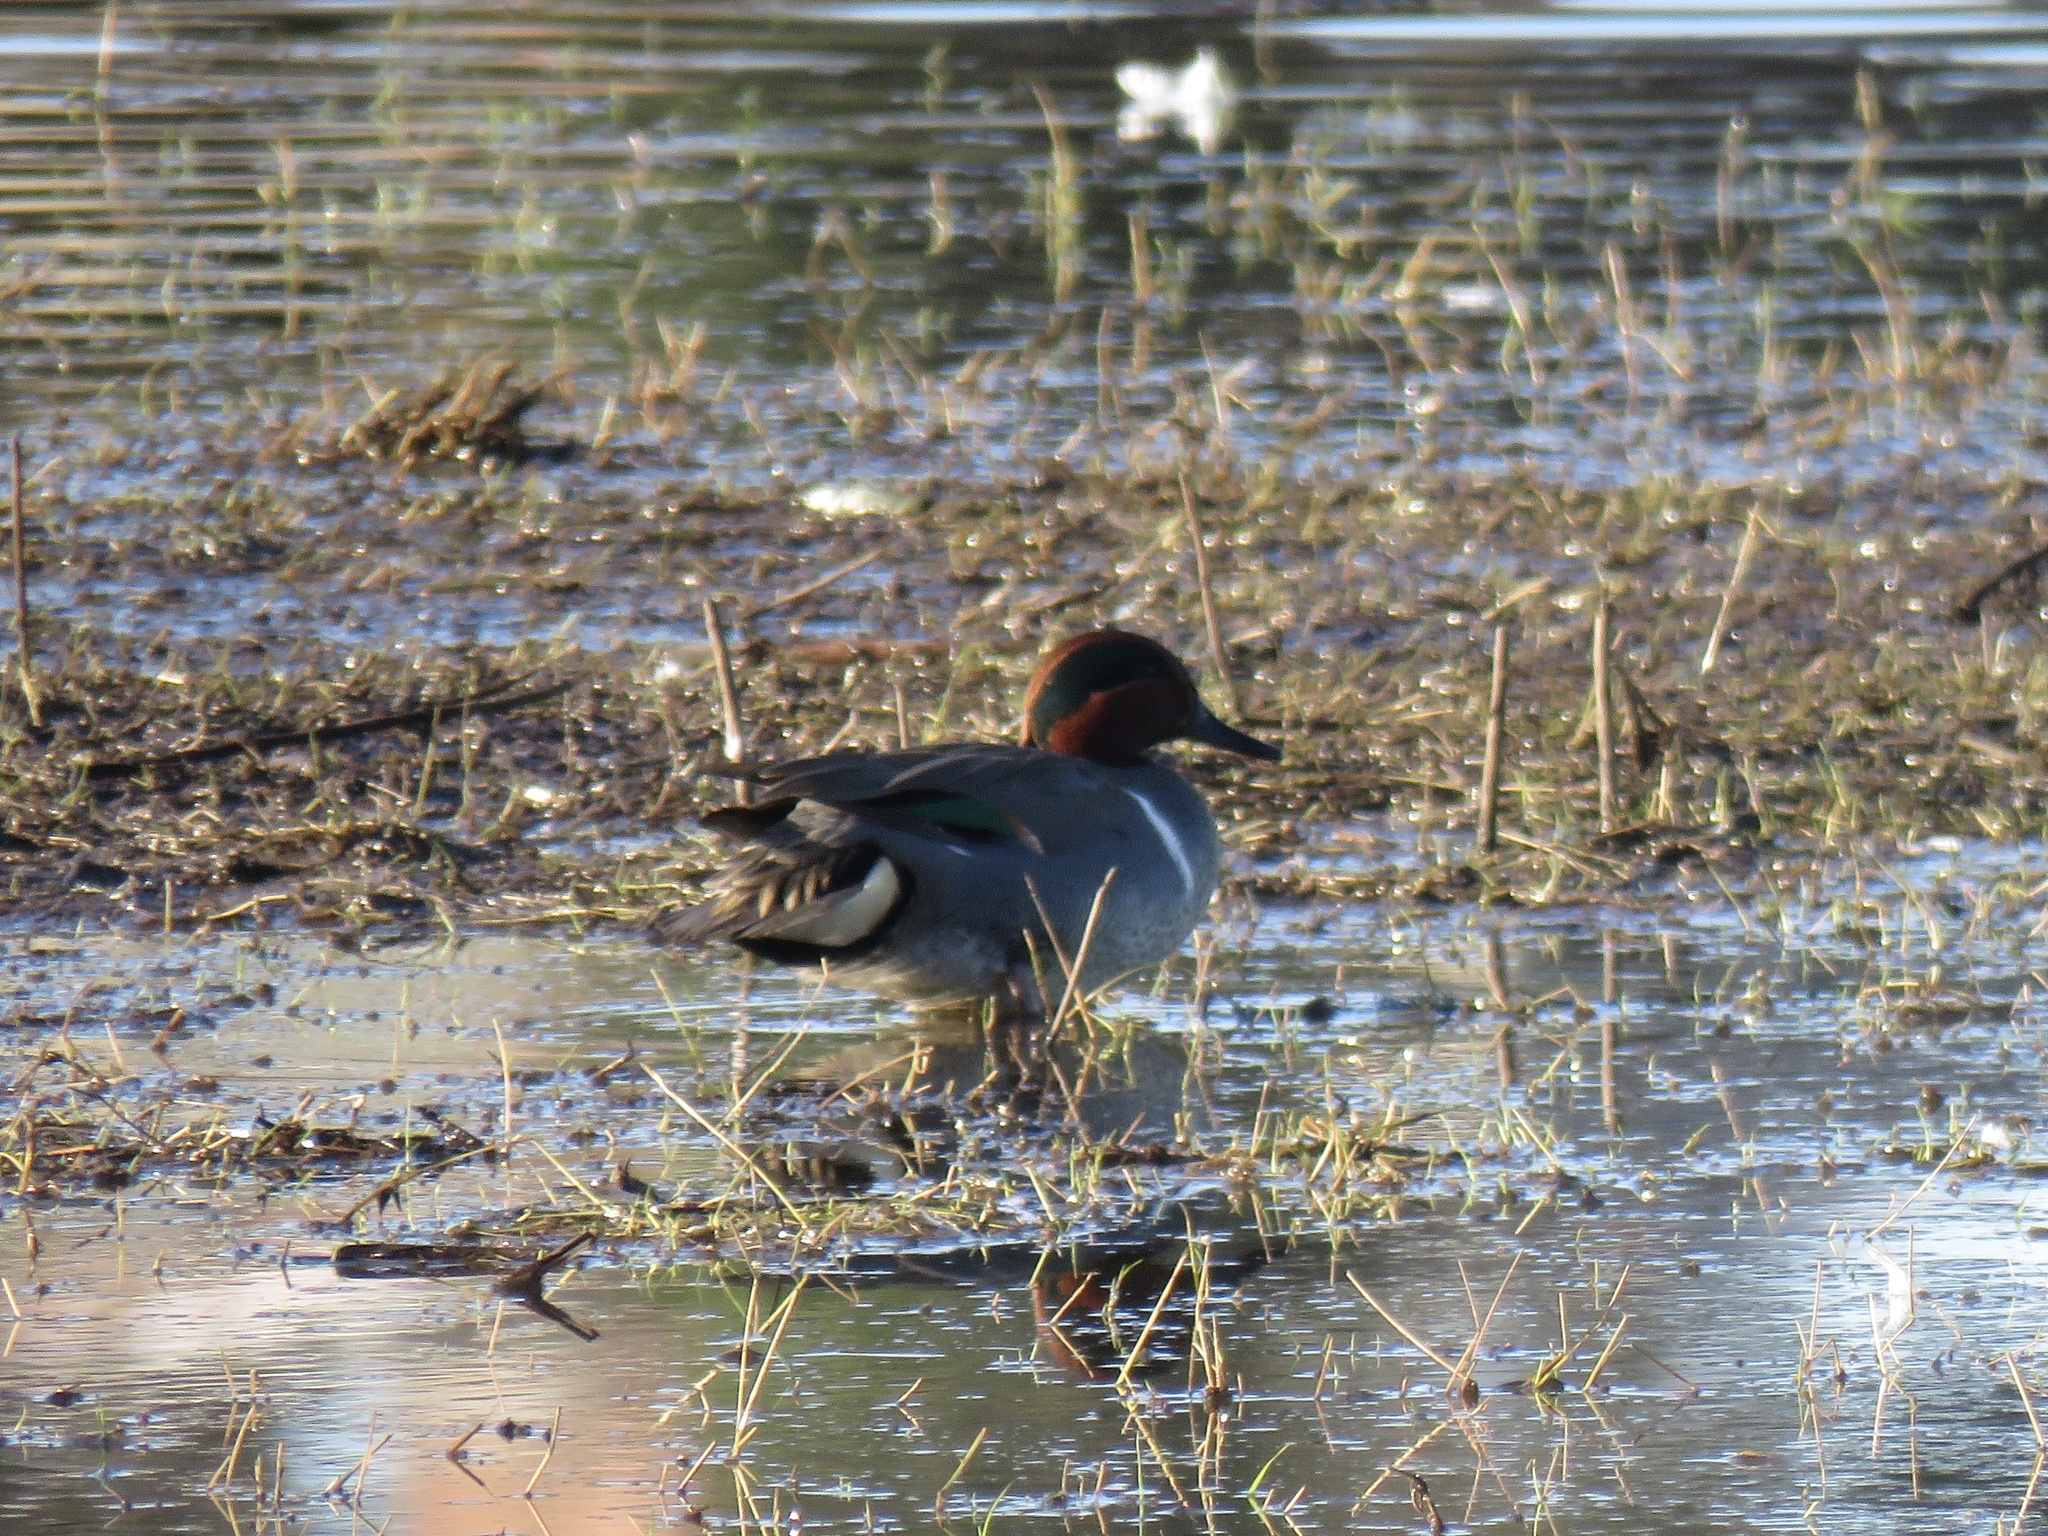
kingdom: Animalia
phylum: Chordata
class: Aves
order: Anseriformes
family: Anatidae
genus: Anas
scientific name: Anas crecca
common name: Eurasian teal
